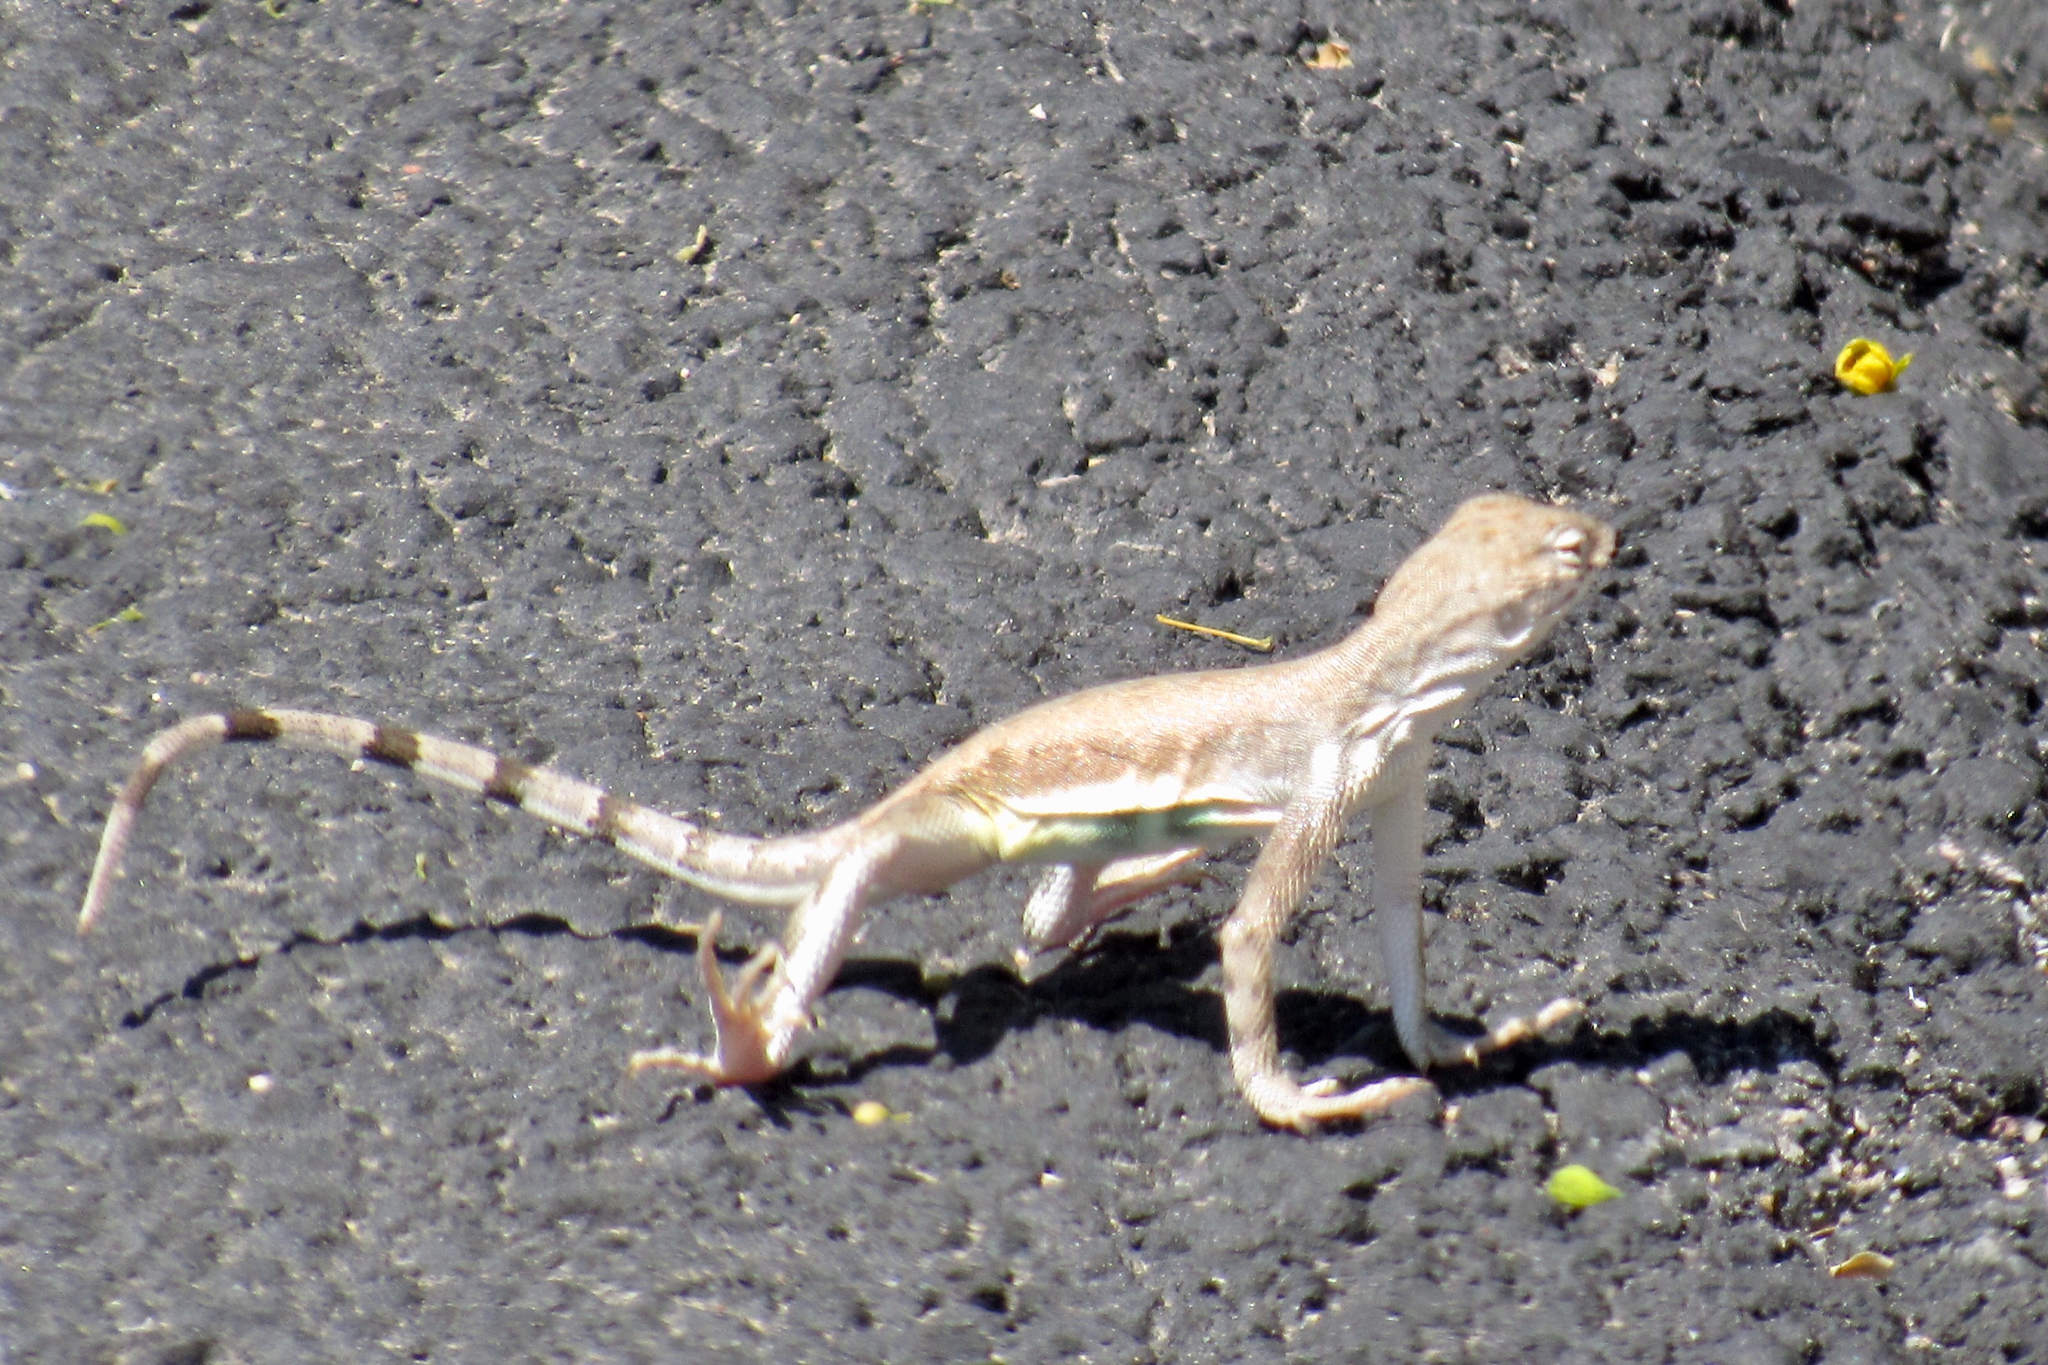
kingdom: Animalia
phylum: Chordata
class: Squamata
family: Phrynosomatidae
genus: Callisaurus
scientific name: Callisaurus draconoides
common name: Zebra-tailed lizard
